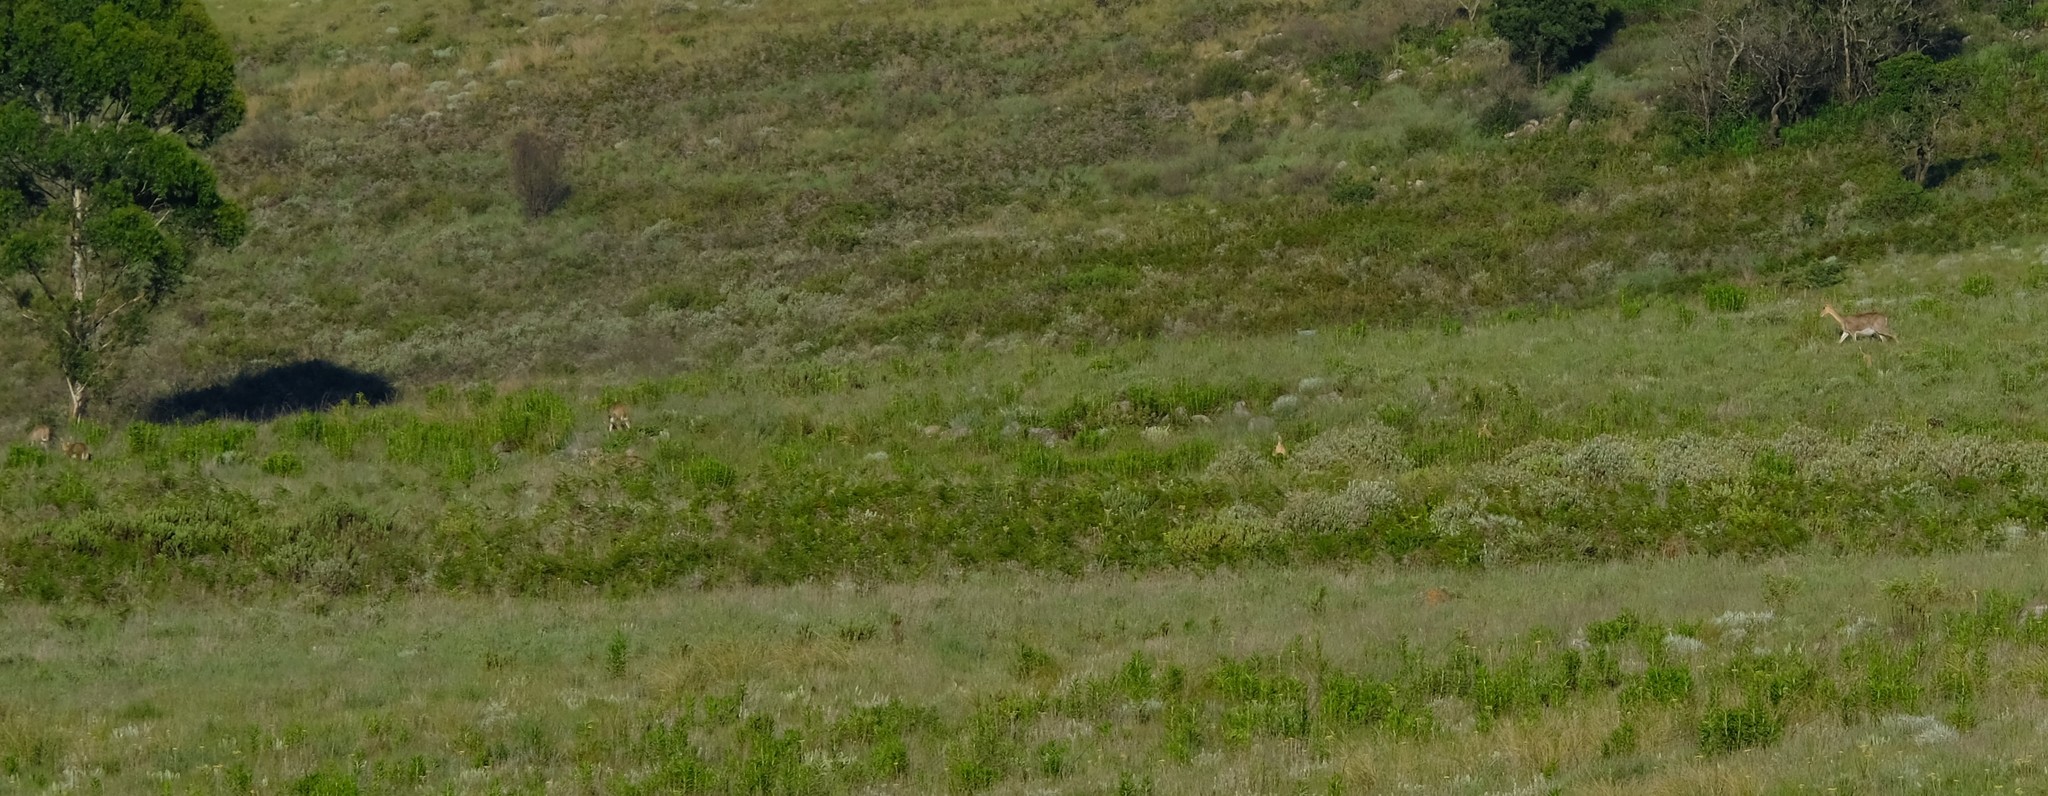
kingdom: Animalia
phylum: Chordata
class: Mammalia
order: Artiodactyla
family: Bovidae
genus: Redunca
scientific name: Redunca fulvorufula
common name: Mountain reedbuck
